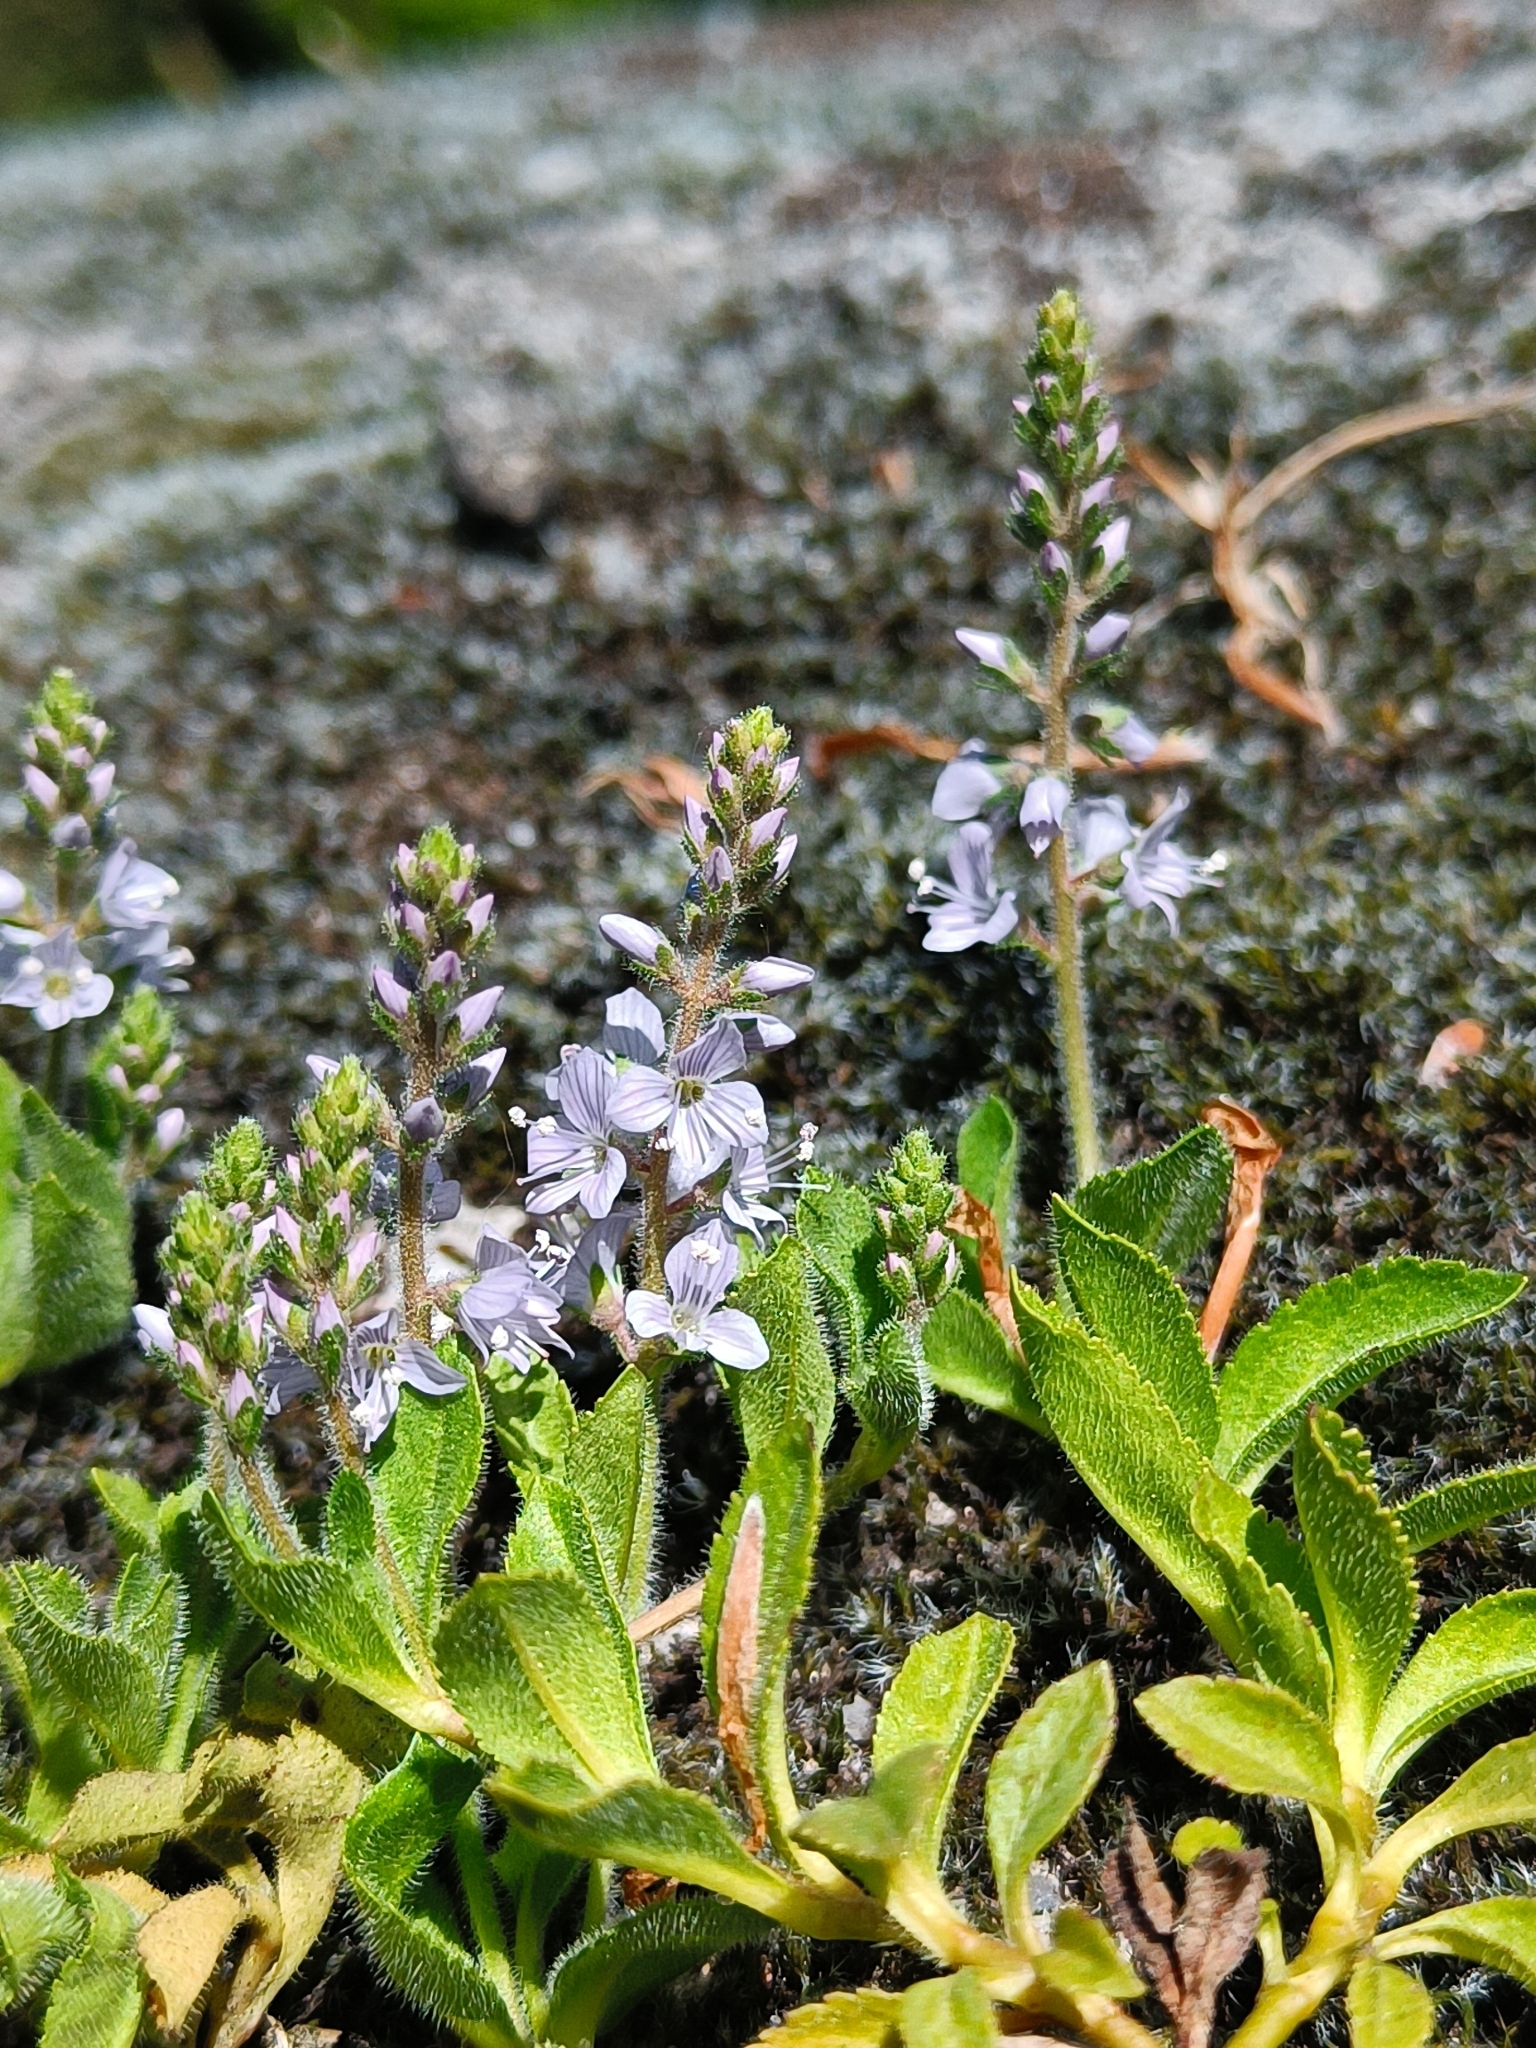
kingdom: Plantae
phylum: Tracheophyta
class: Magnoliopsida
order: Lamiales
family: Plantaginaceae
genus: Veronica
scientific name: Veronica officinalis
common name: Common speedwell
